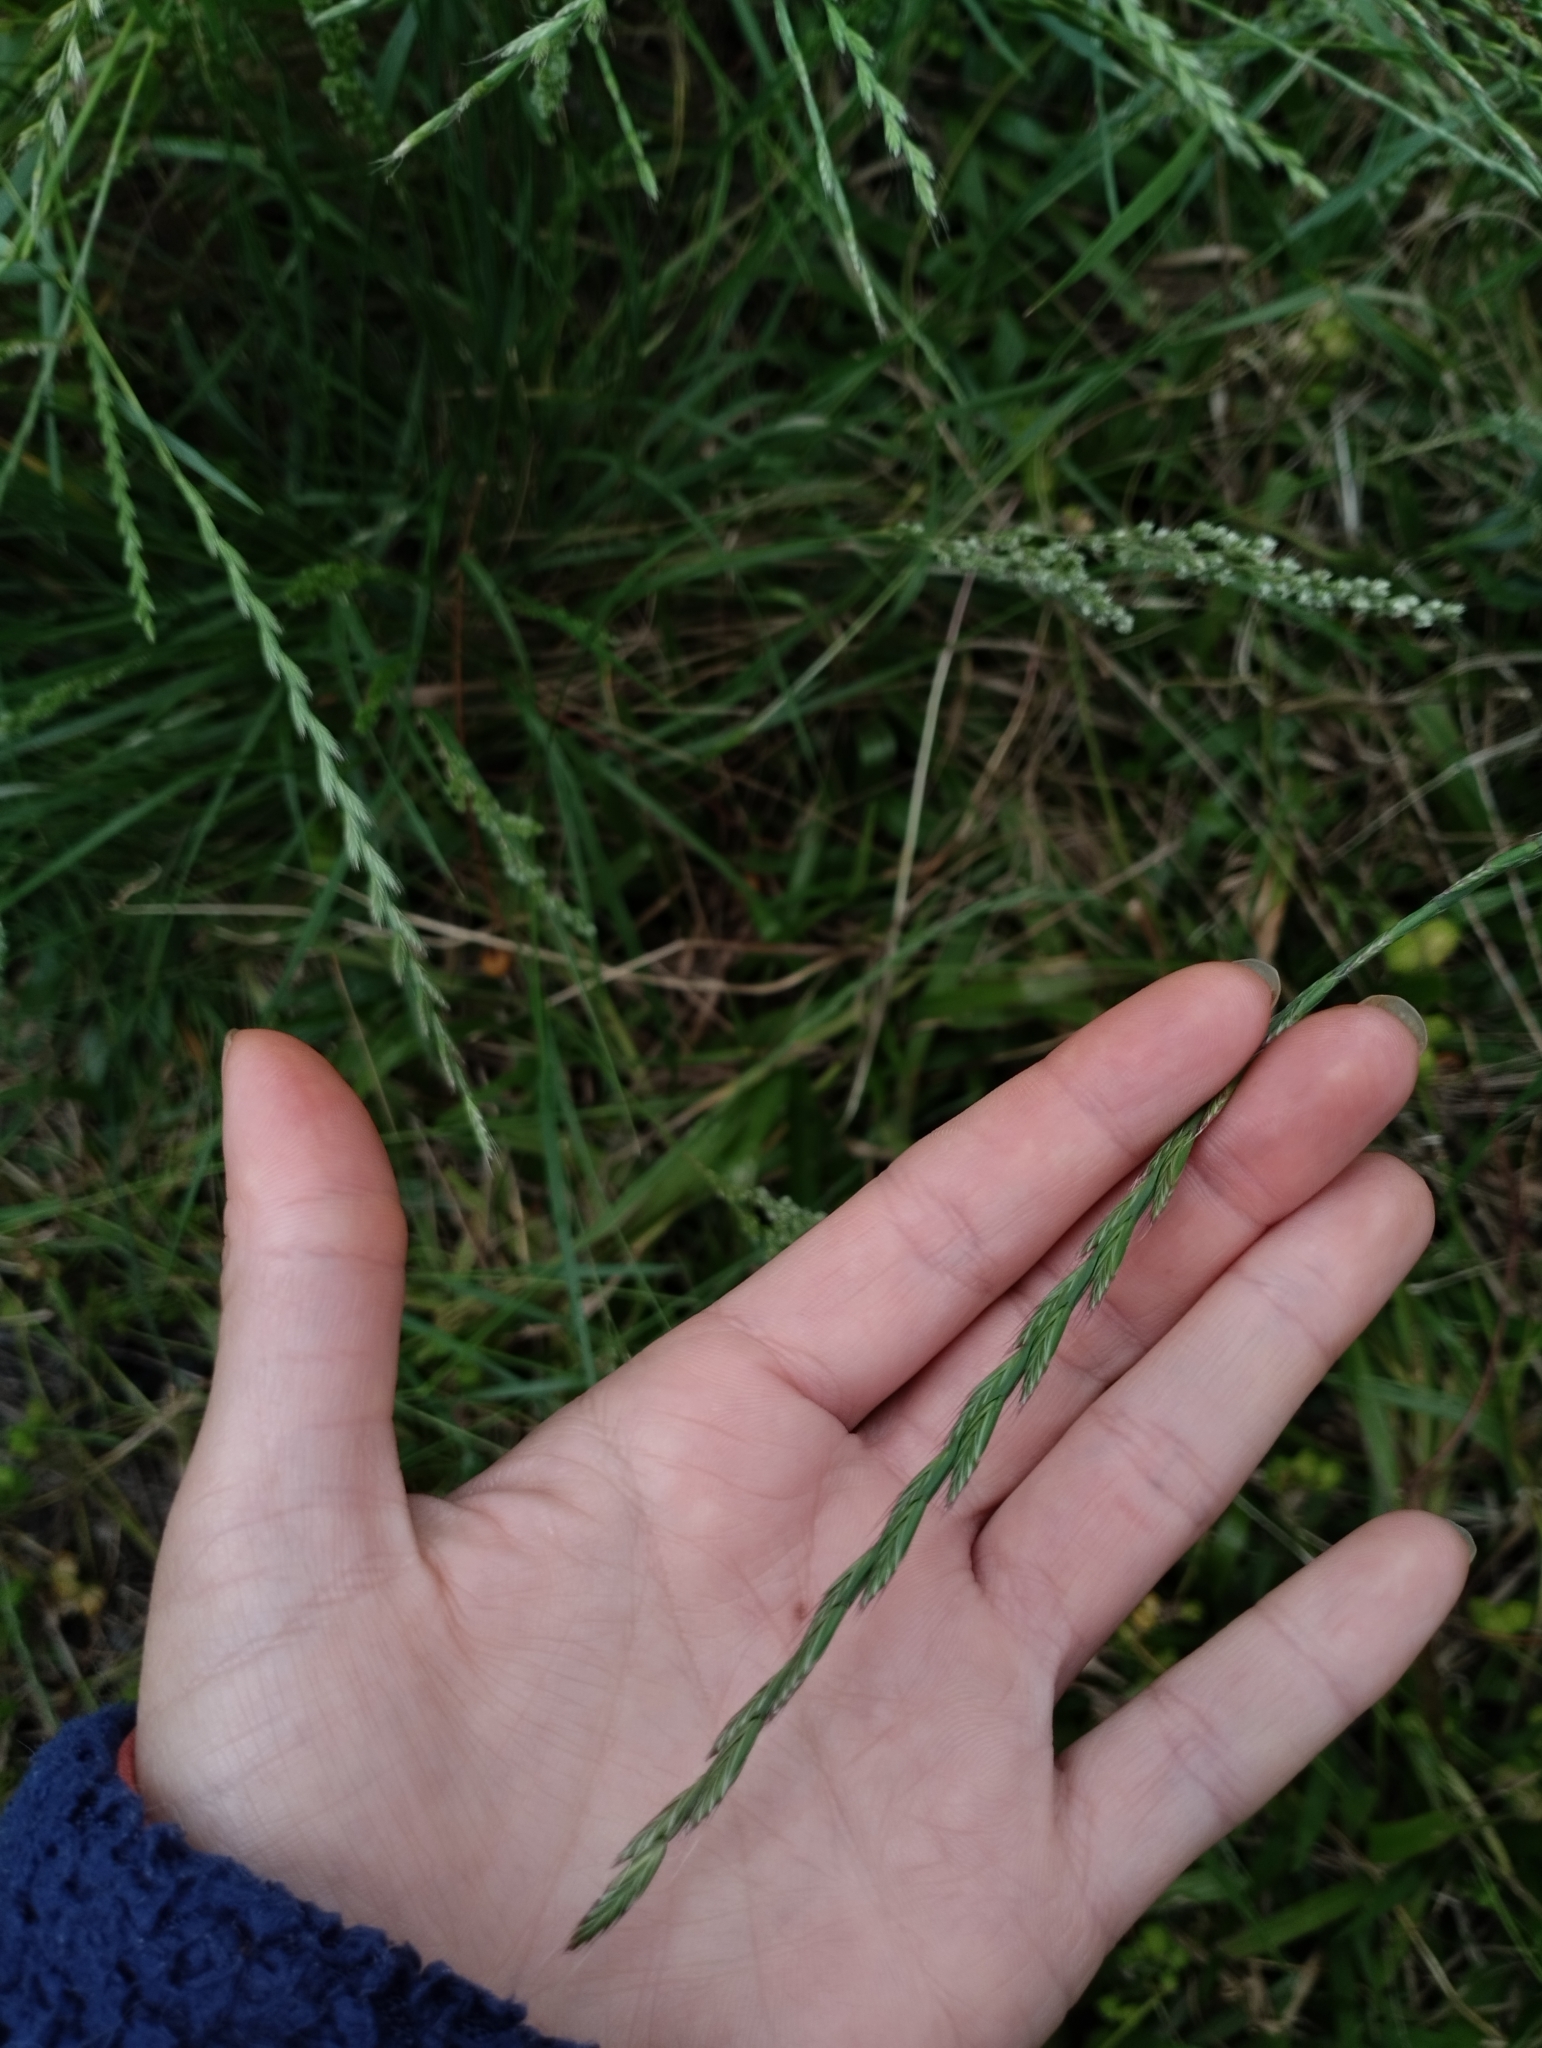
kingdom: Plantae
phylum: Tracheophyta
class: Liliopsida
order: Poales
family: Poaceae
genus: Lolium
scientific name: Lolium multiflorum
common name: Annual ryegrass
